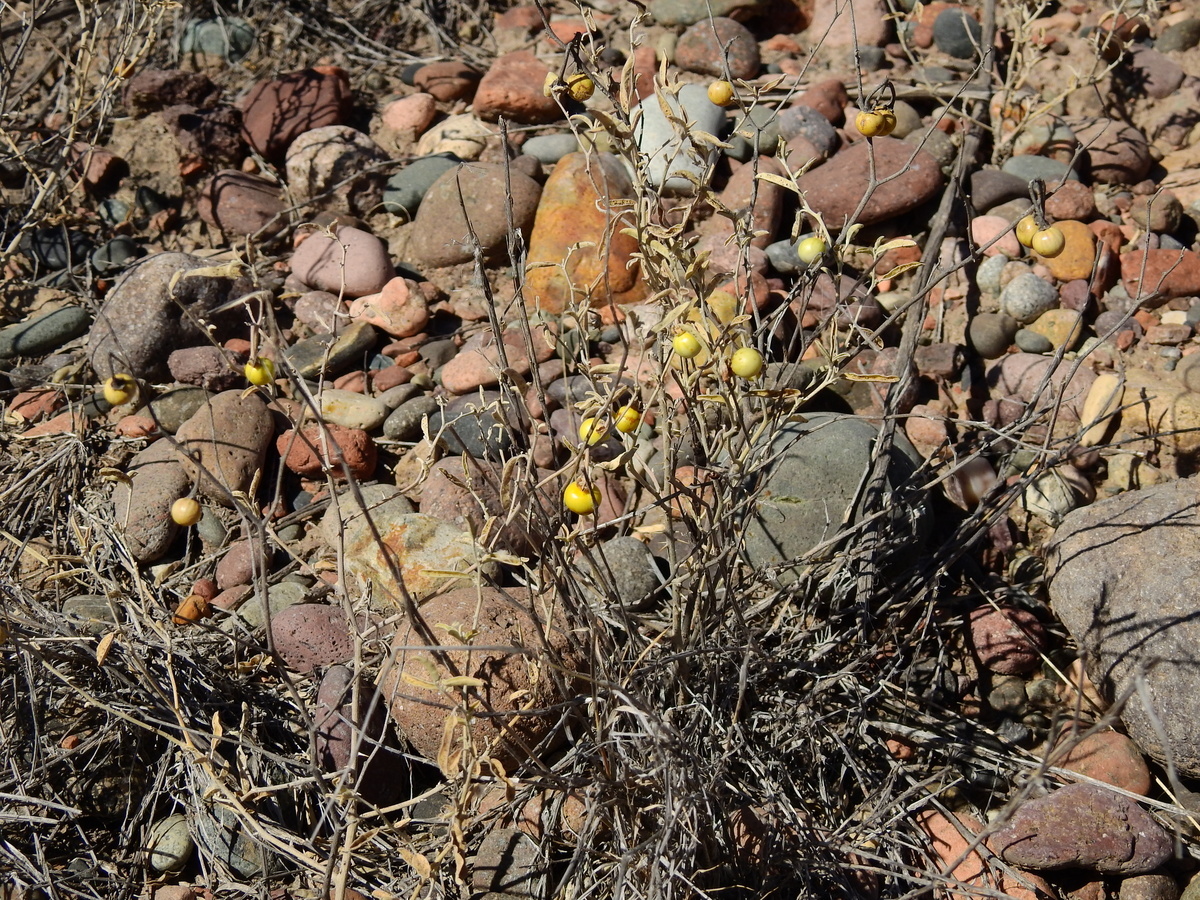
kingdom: Plantae
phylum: Tracheophyta
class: Magnoliopsida
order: Solanales
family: Solanaceae
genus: Solanum
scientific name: Solanum elaeagnifolium
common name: Silverleaf nightshade
